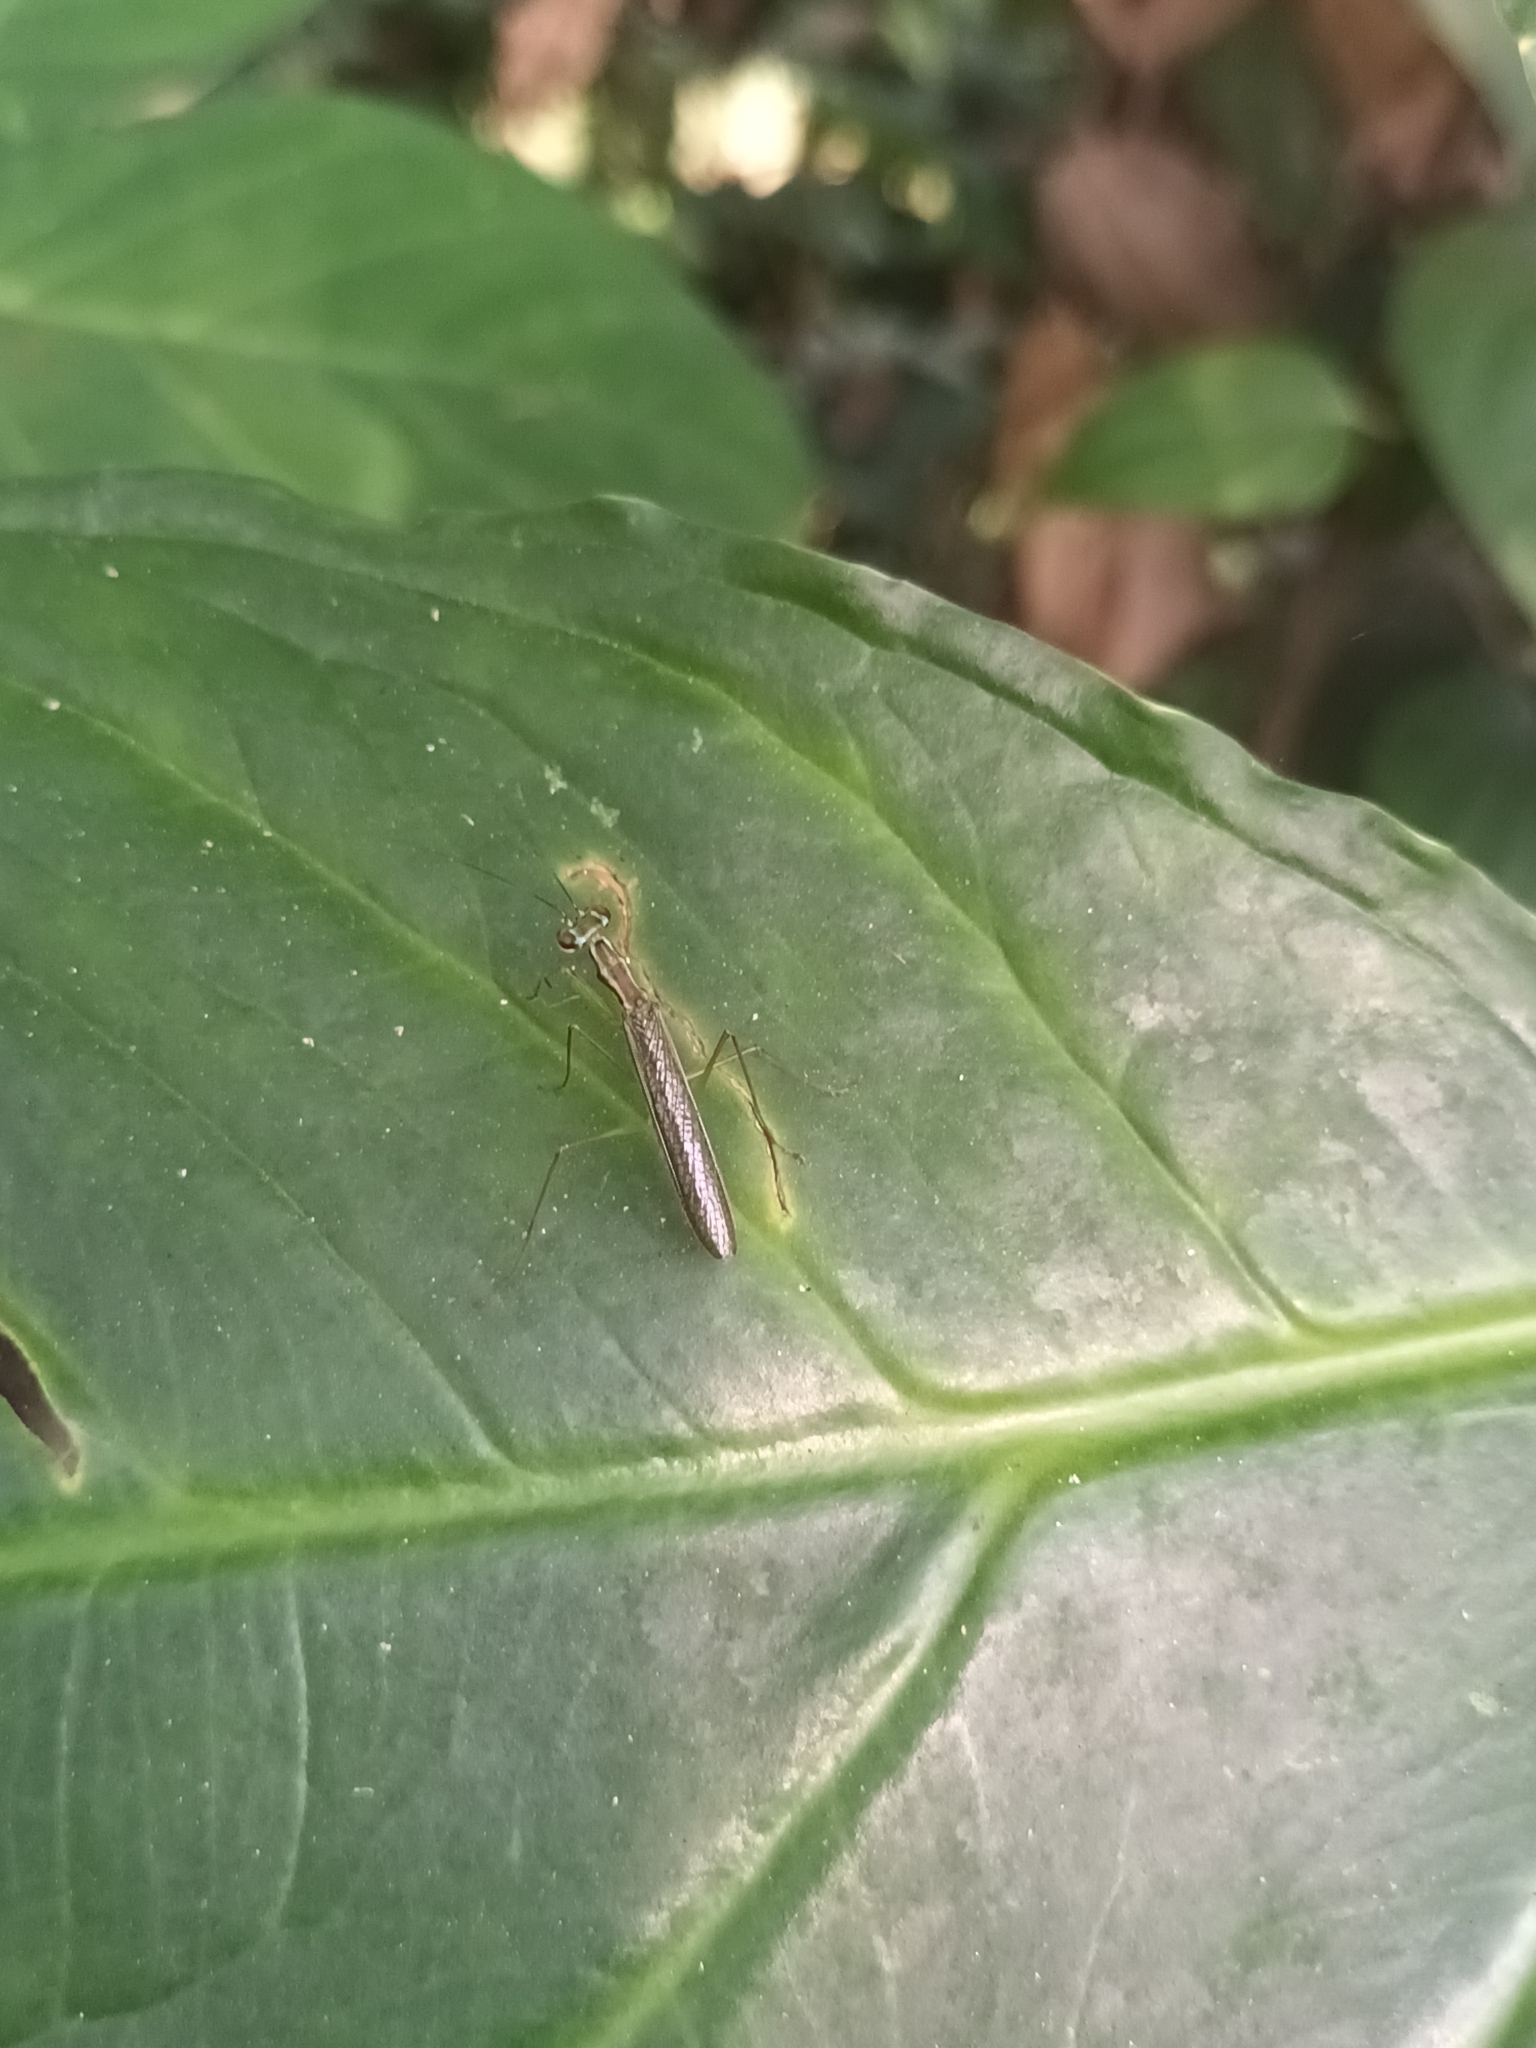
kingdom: Animalia
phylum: Arthropoda
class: Insecta
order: Mantodea
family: Gonypetidae
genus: Hapalopeza
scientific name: Hapalopeza nilgirica
